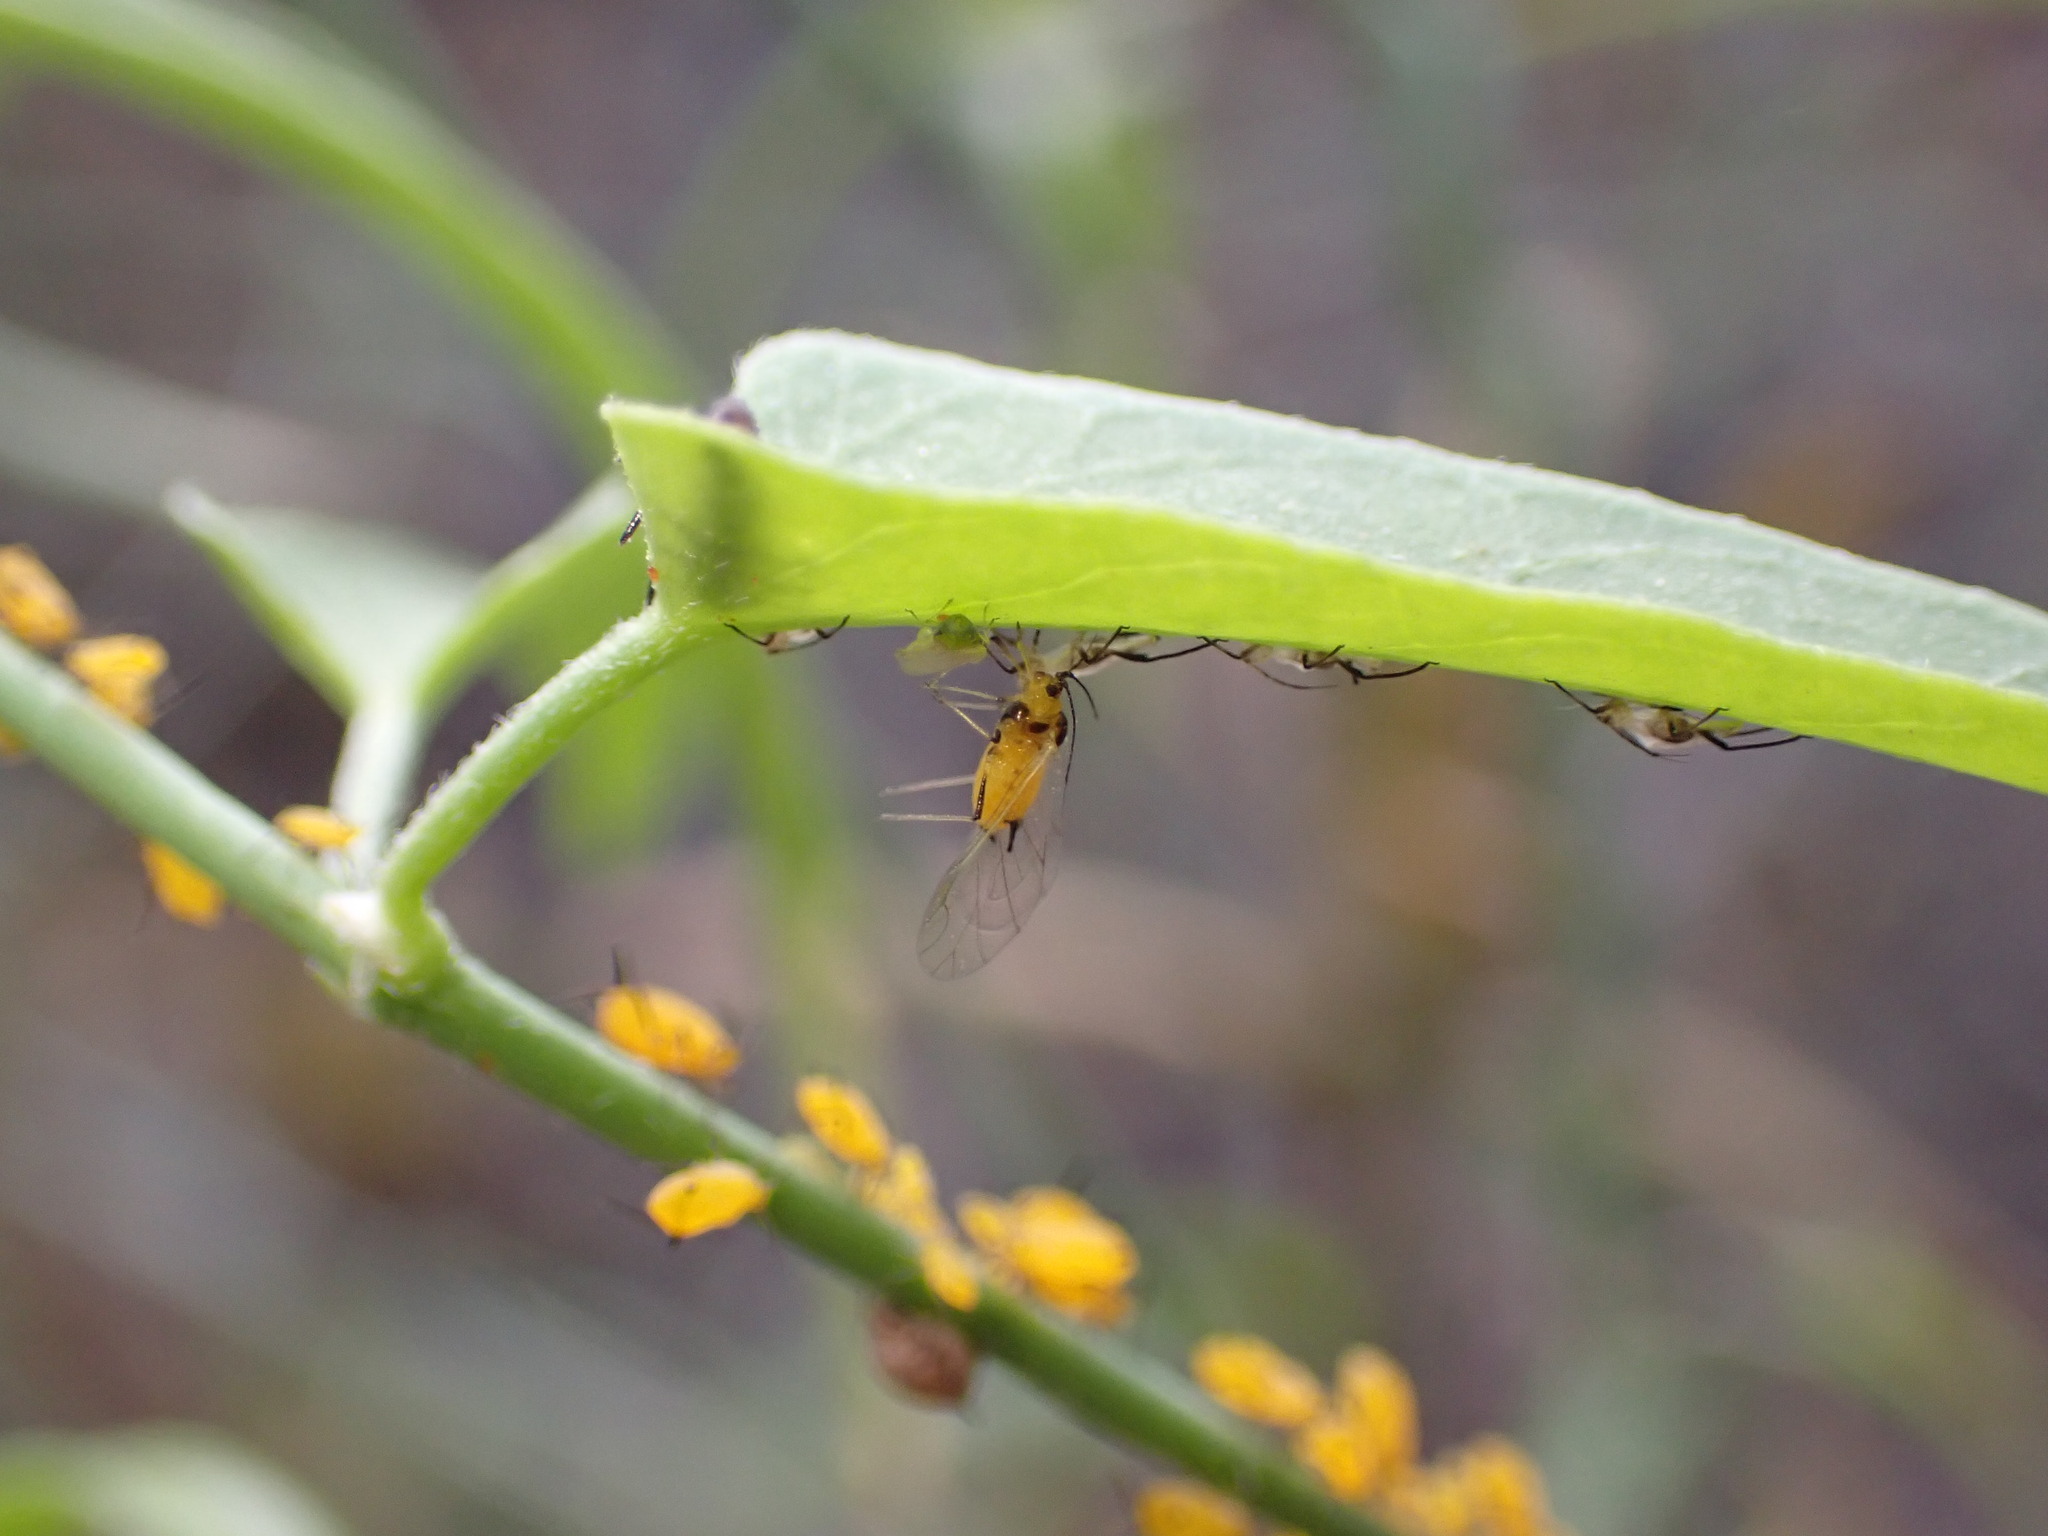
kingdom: Animalia
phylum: Arthropoda
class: Insecta
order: Hemiptera
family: Aphididae
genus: Aphis
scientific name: Aphis nerii
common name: Oleander aphid
